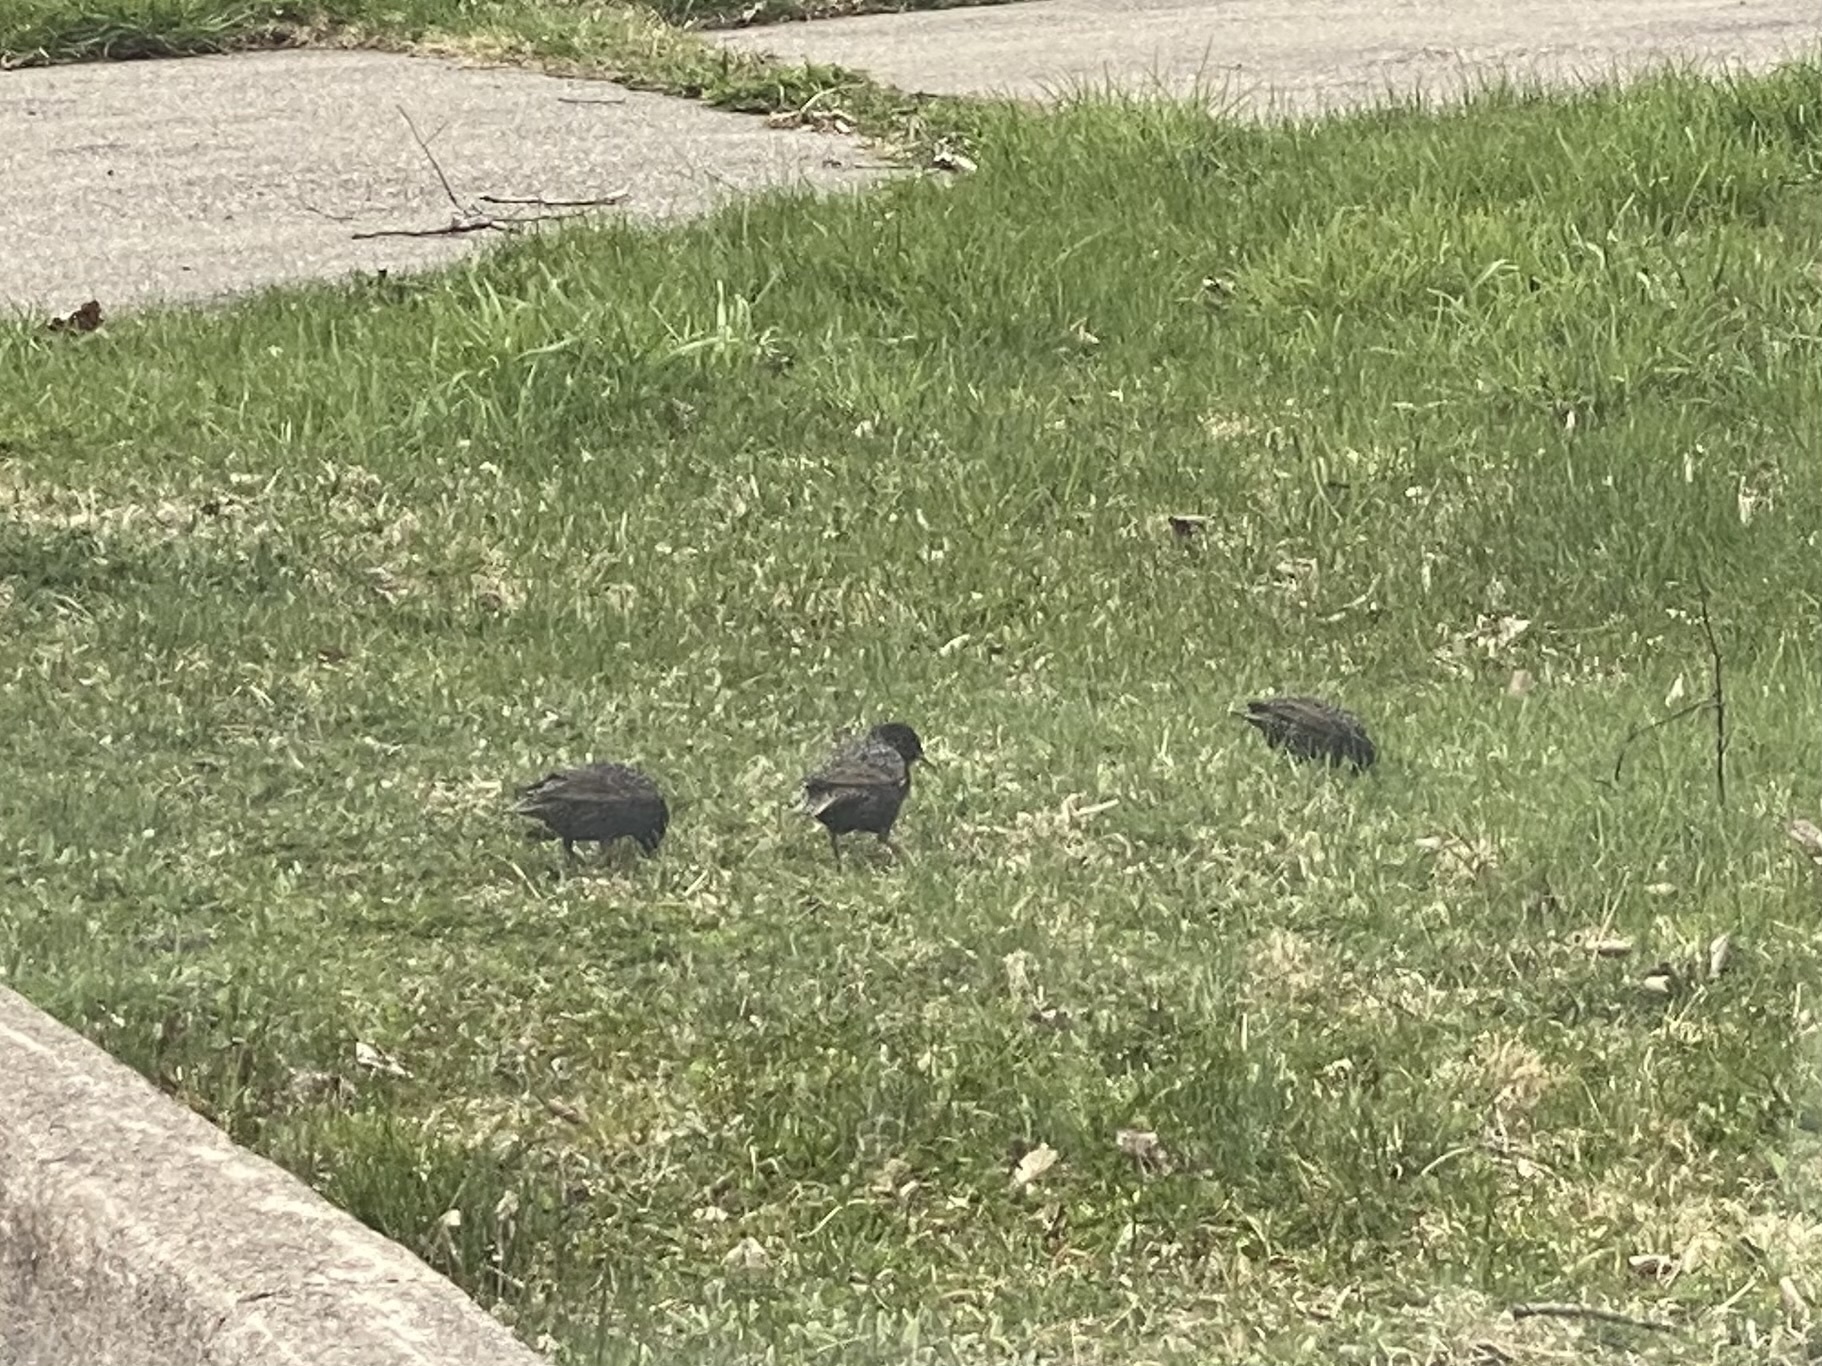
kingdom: Animalia
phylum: Chordata
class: Aves
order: Passeriformes
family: Sturnidae
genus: Sturnus
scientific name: Sturnus vulgaris
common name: Common starling
